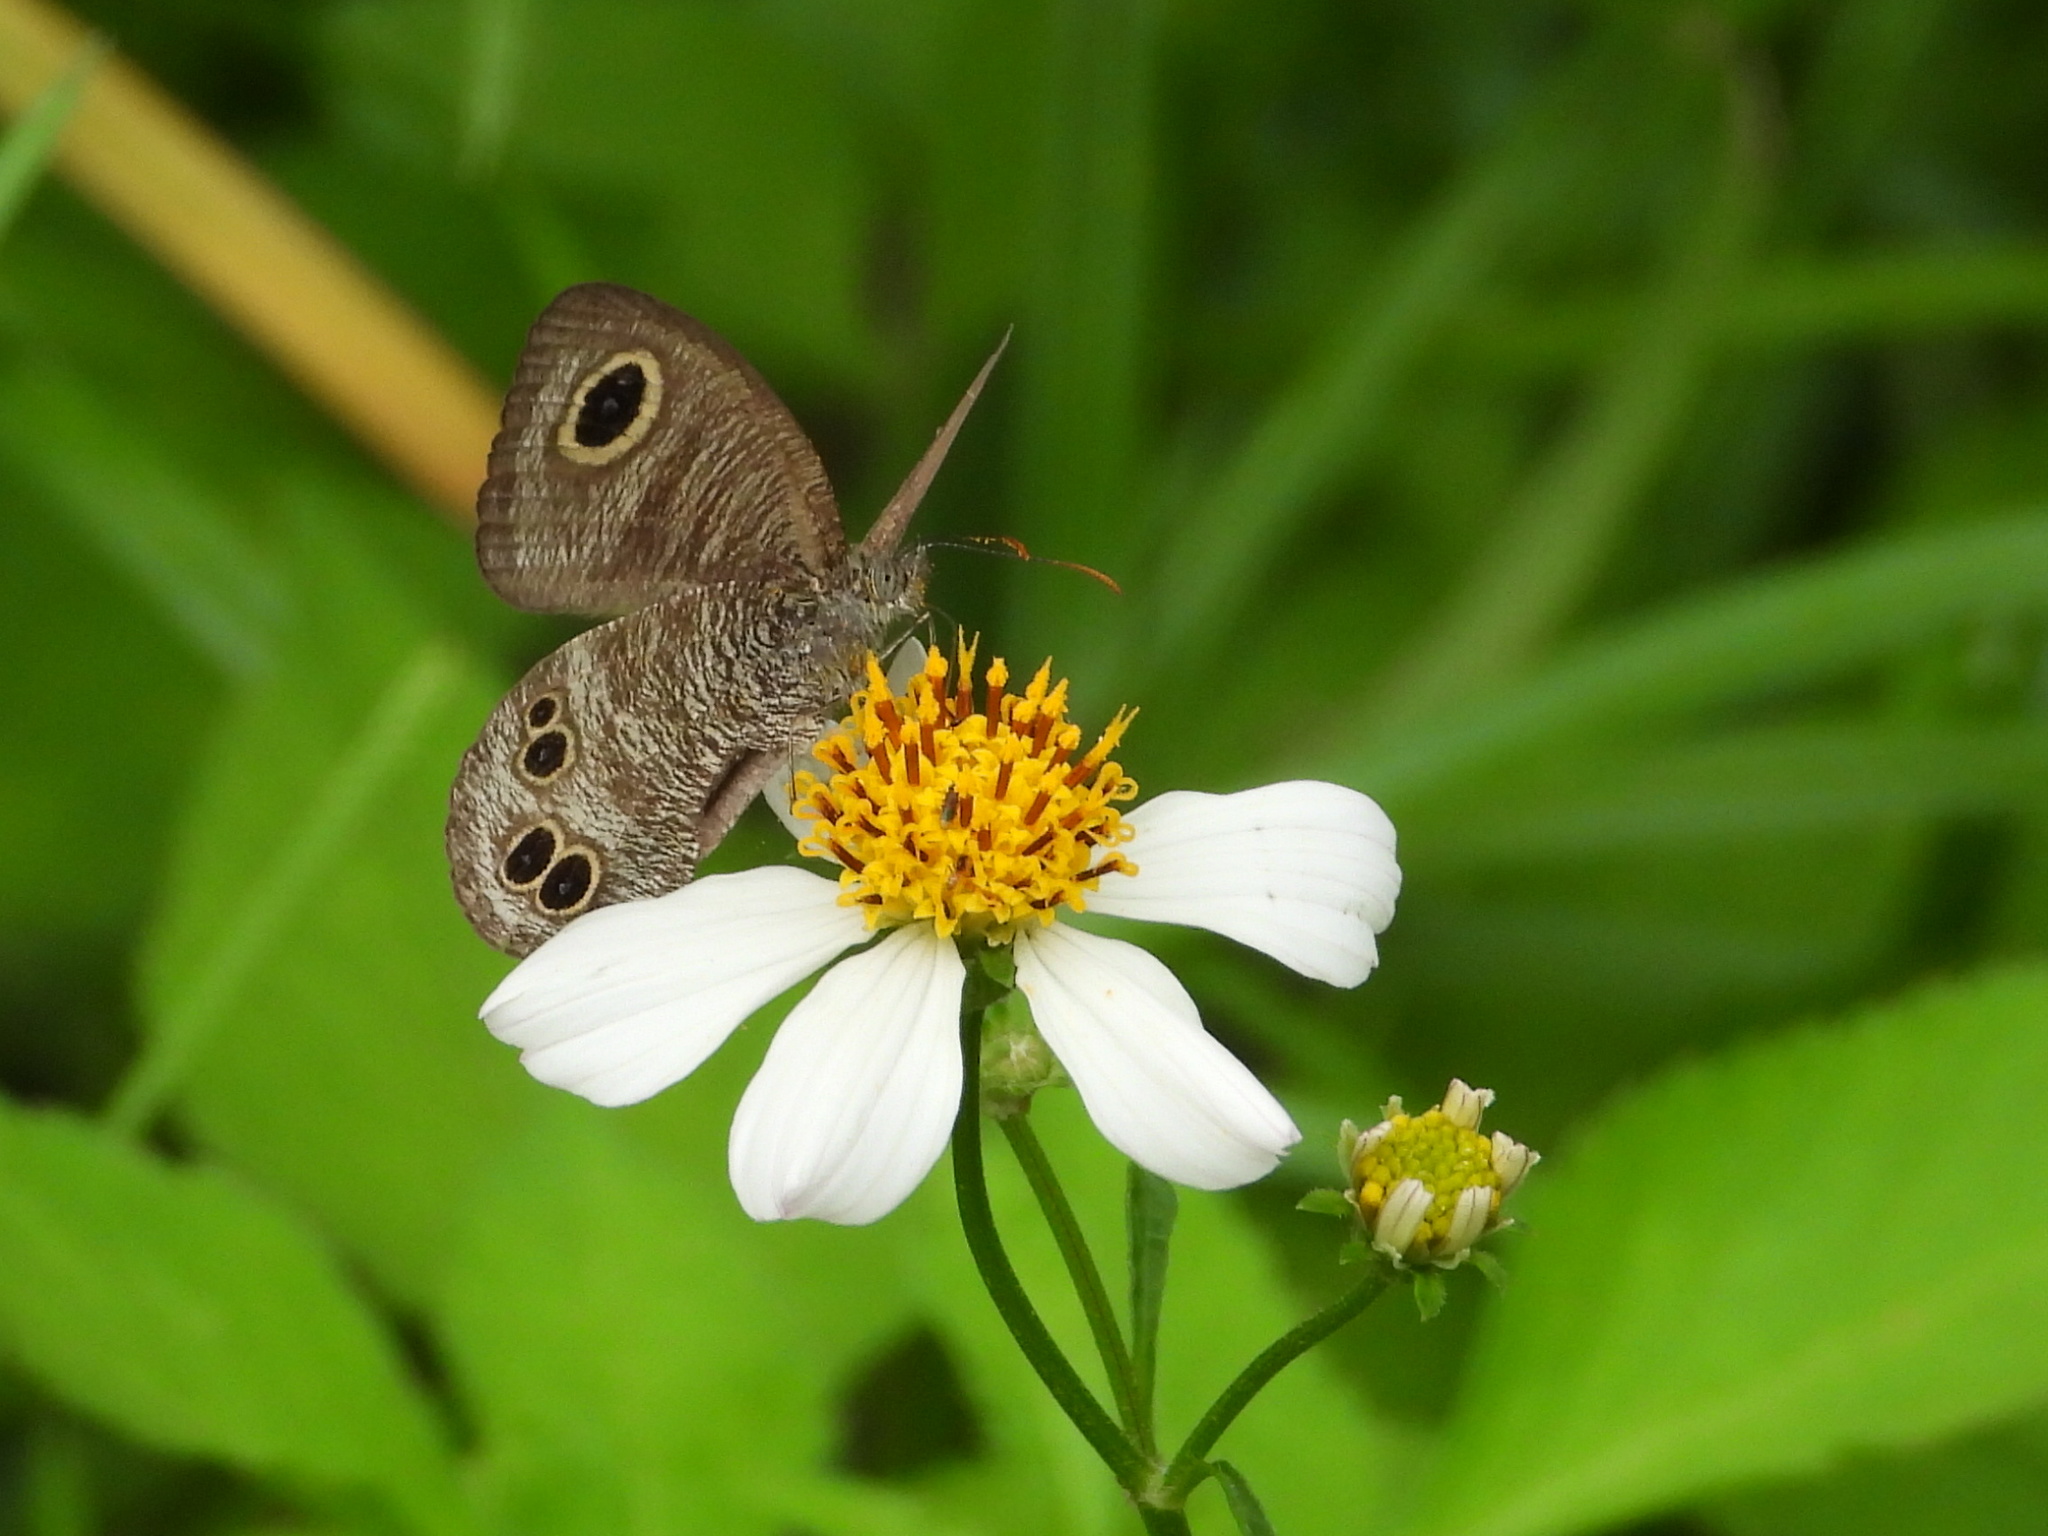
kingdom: Animalia
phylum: Arthropoda
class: Insecta
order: Lepidoptera
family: Nymphalidae
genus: Ypthima
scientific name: Ypthima baldus
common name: Common five-ring
